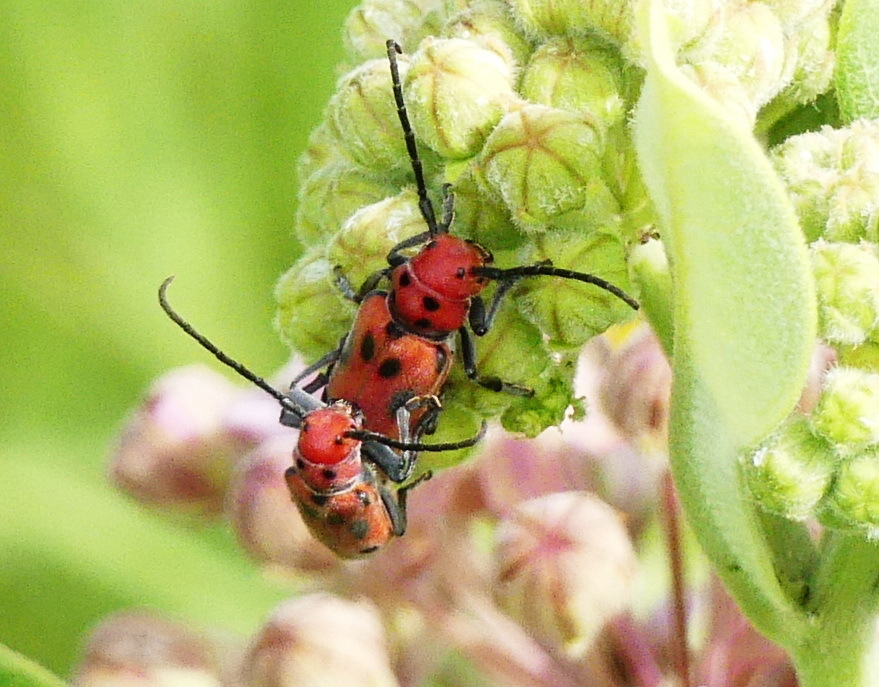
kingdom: Animalia
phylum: Arthropoda
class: Insecta
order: Coleoptera
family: Cerambycidae
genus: Tetraopes
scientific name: Tetraopes tetrophthalmus
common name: Red milkweed beetle
